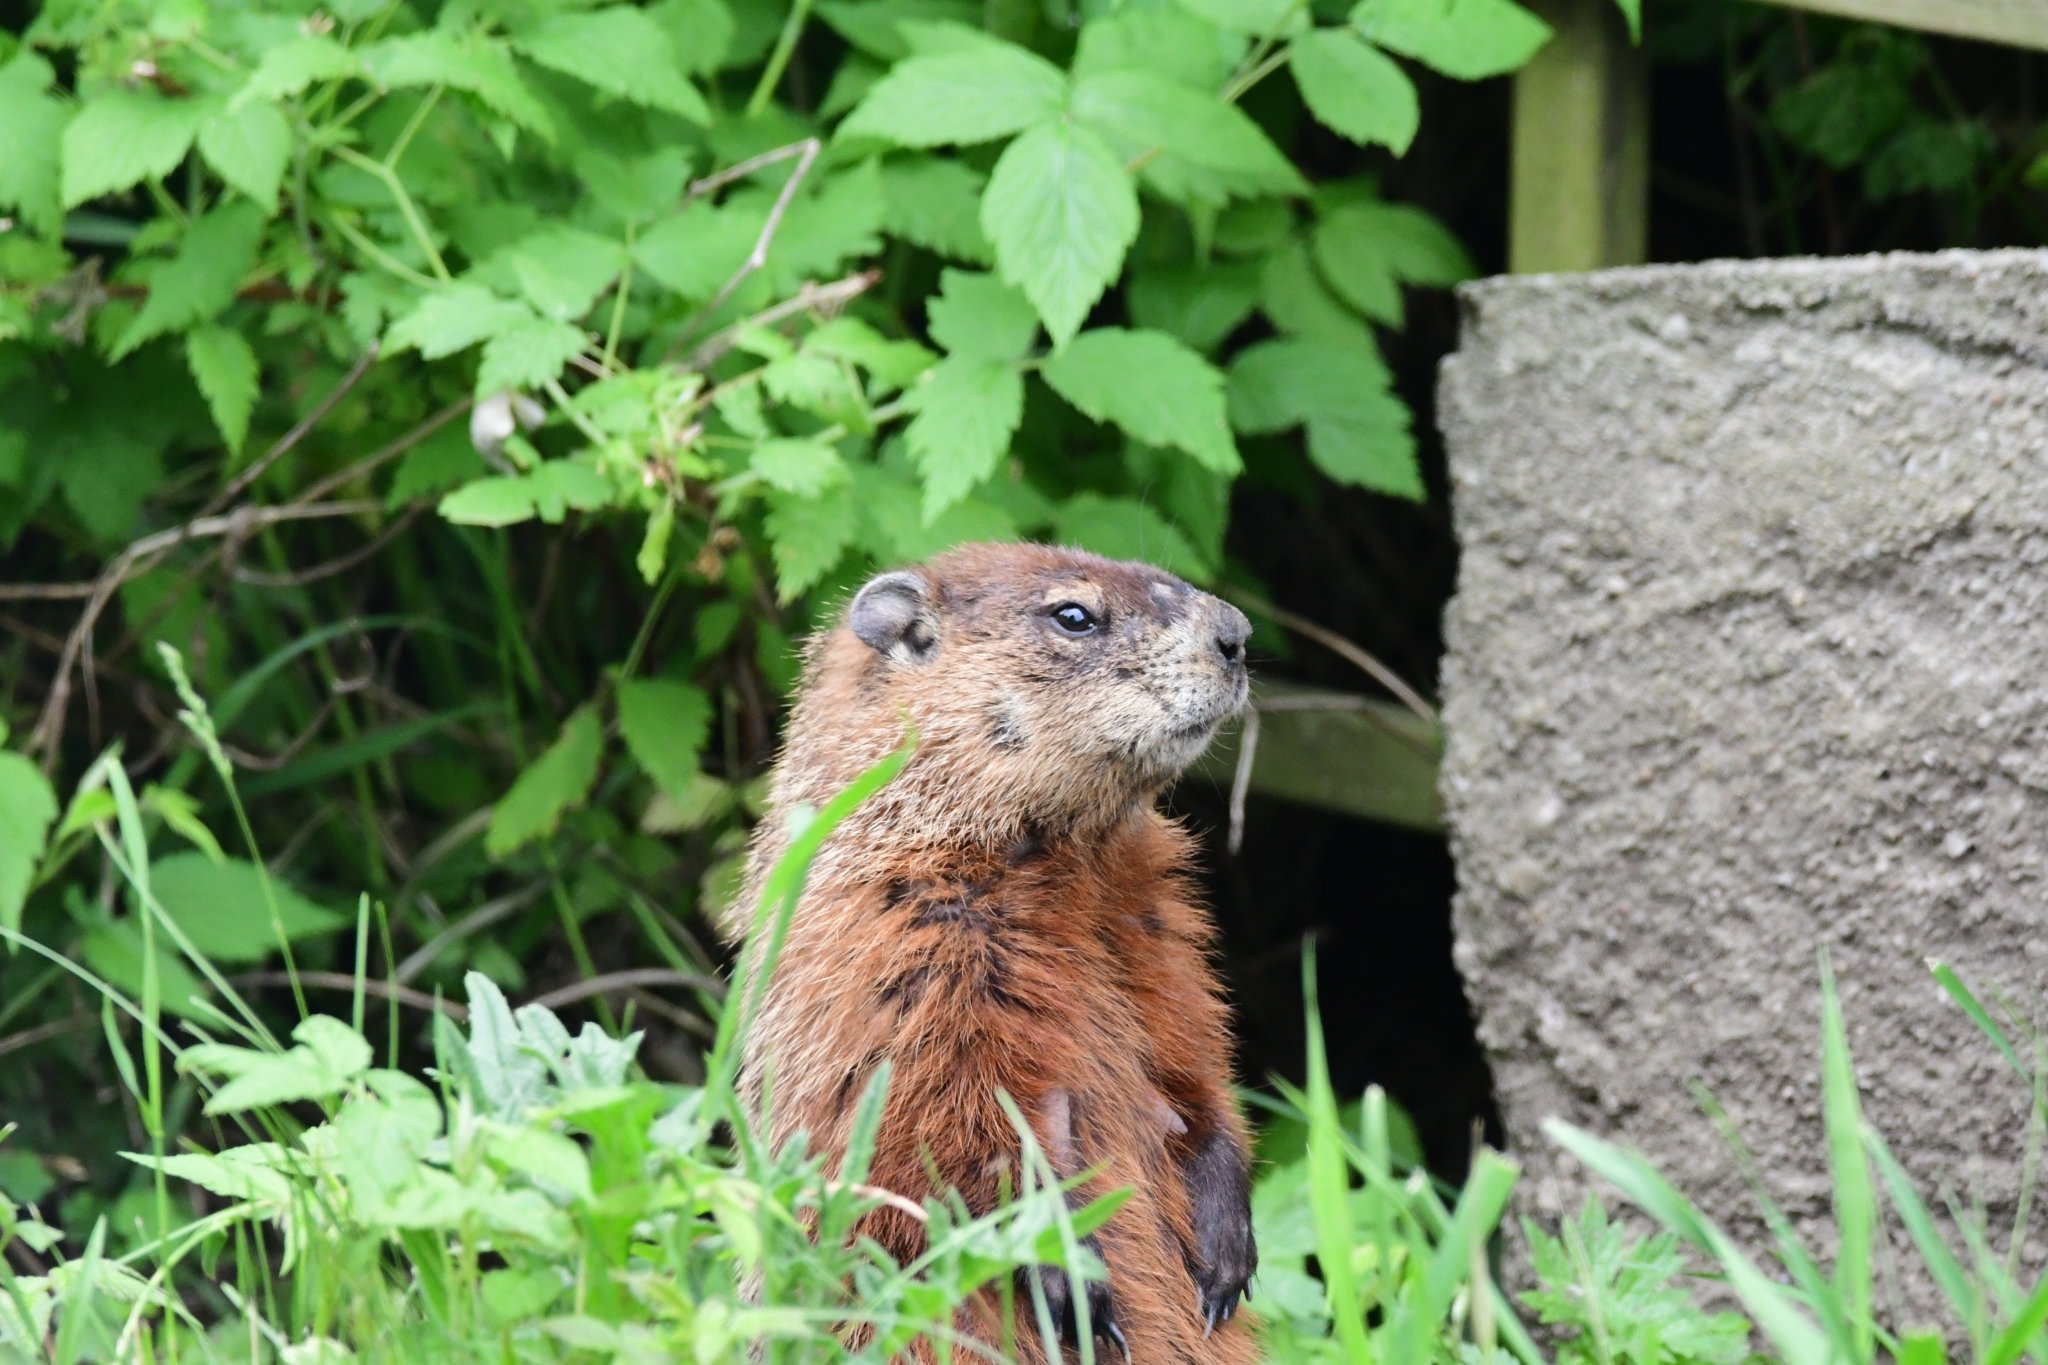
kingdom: Animalia
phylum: Chordata
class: Mammalia
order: Rodentia
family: Sciuridae
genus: Marmota
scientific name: Marmota monax
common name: Groundhog
